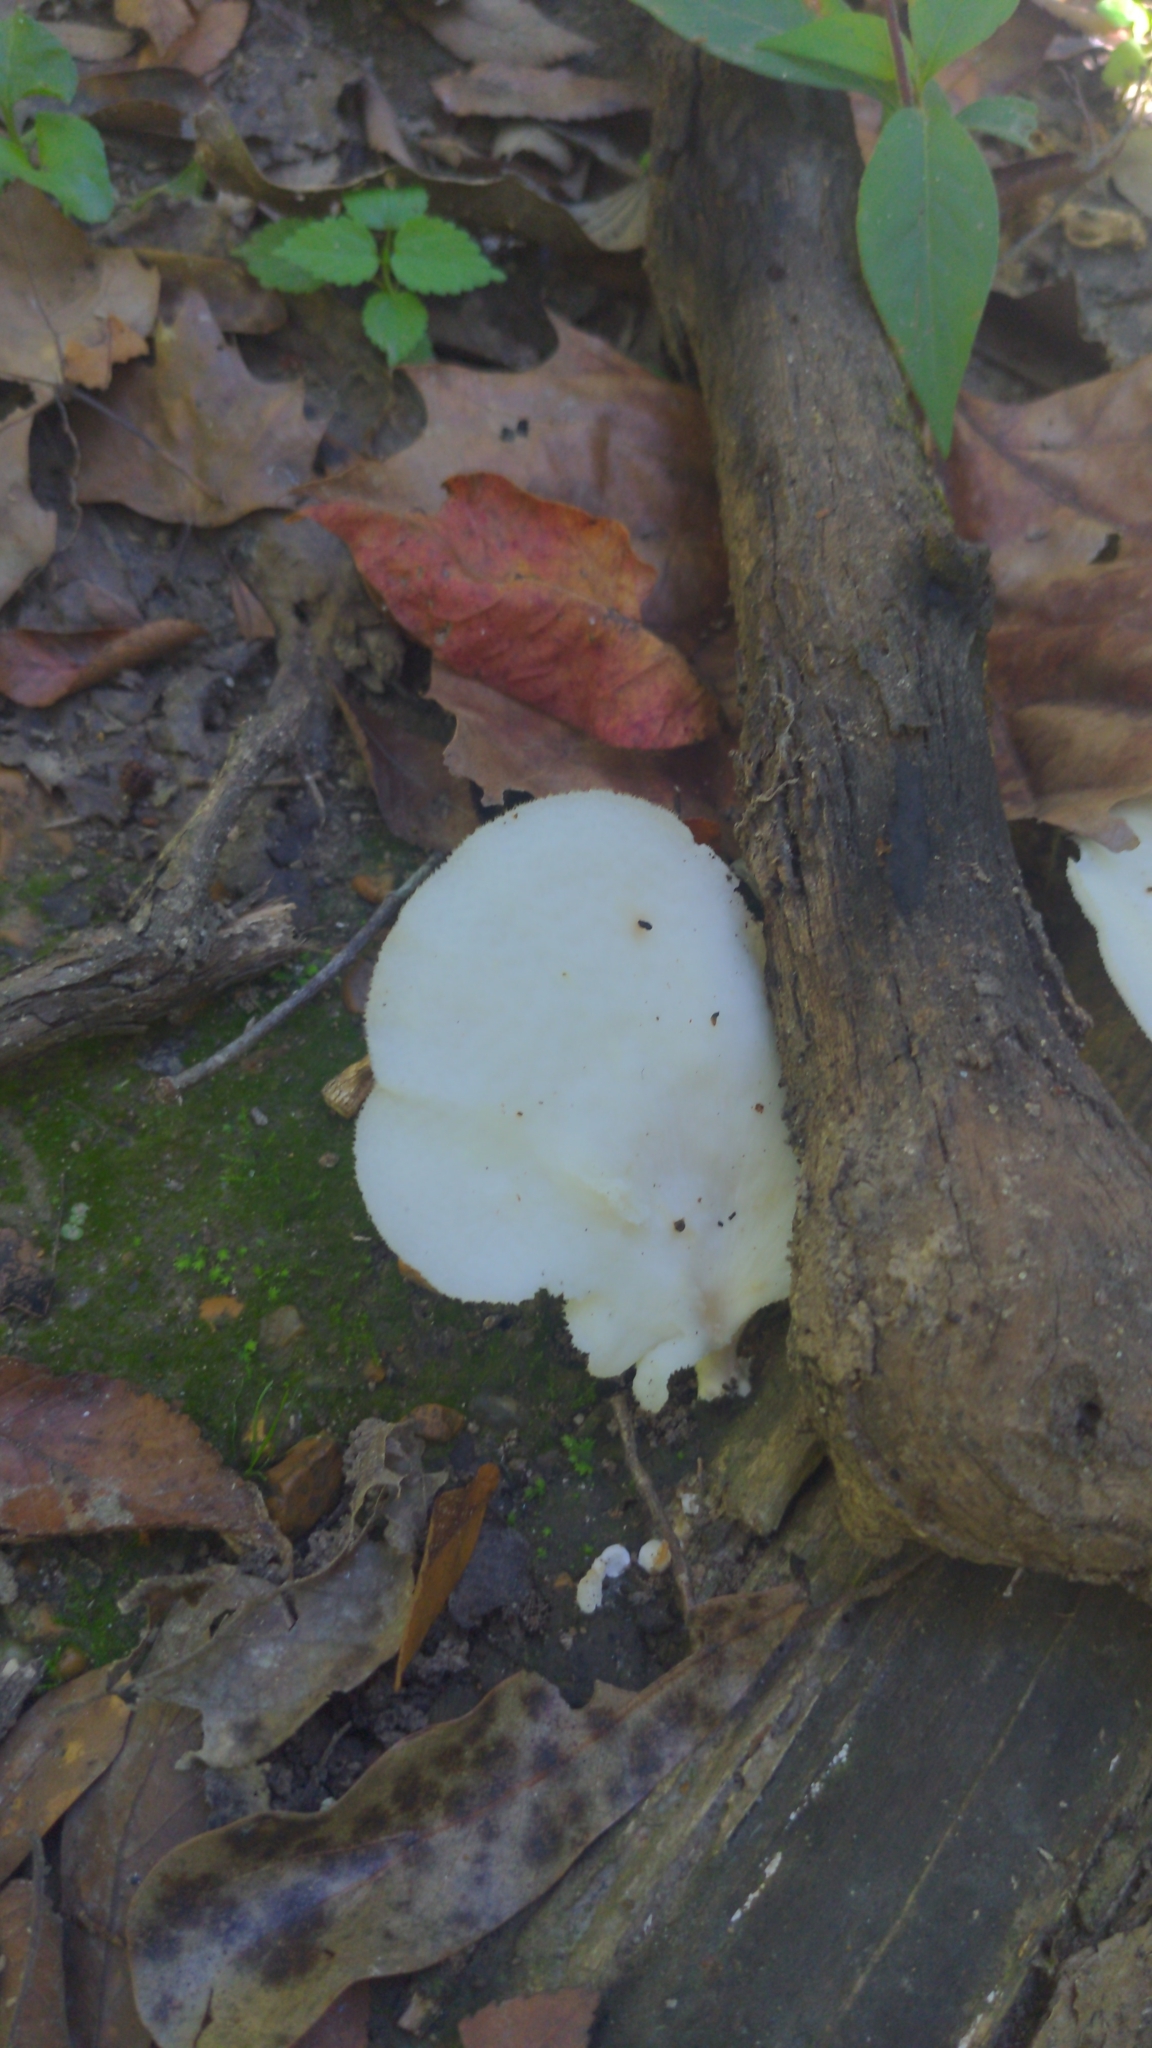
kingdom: Fungi
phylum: Basidiomycota
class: Agaricomycetes
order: Polyporales
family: Polyporaceae
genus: Favolus
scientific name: Favolus tenuiculus
